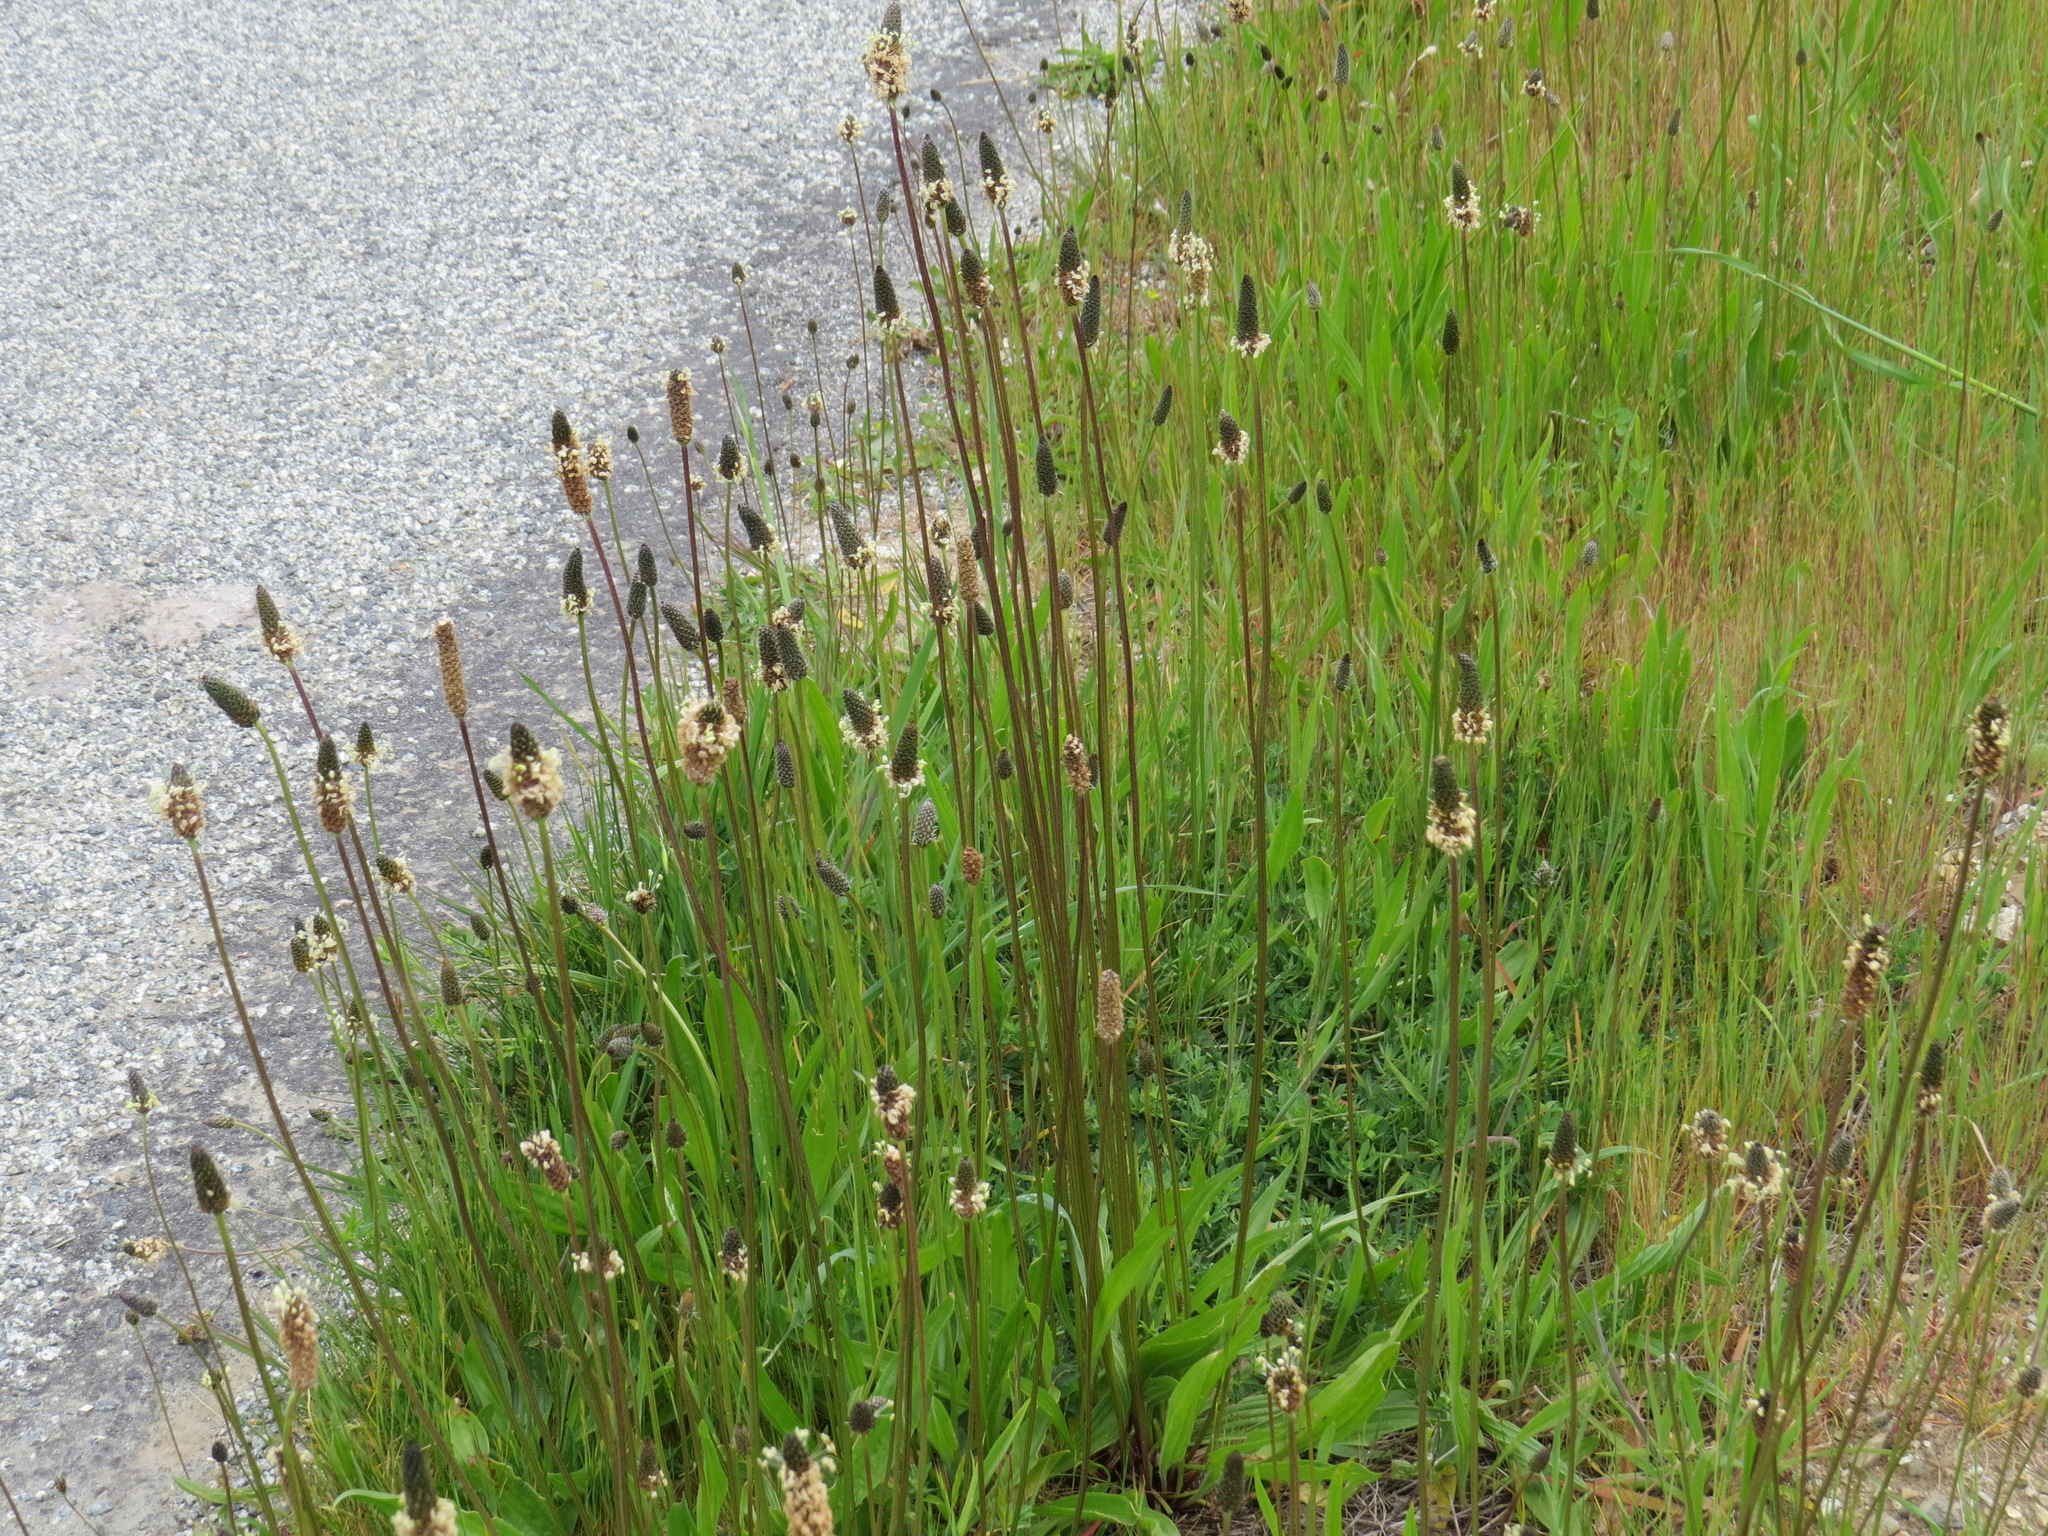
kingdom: Plantae
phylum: Tracheophyta
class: Magnoliopsida
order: Lamiales
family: Plantaginaceae
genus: Plantago
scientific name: Plantago lanceolata
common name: Ribwort plantain
